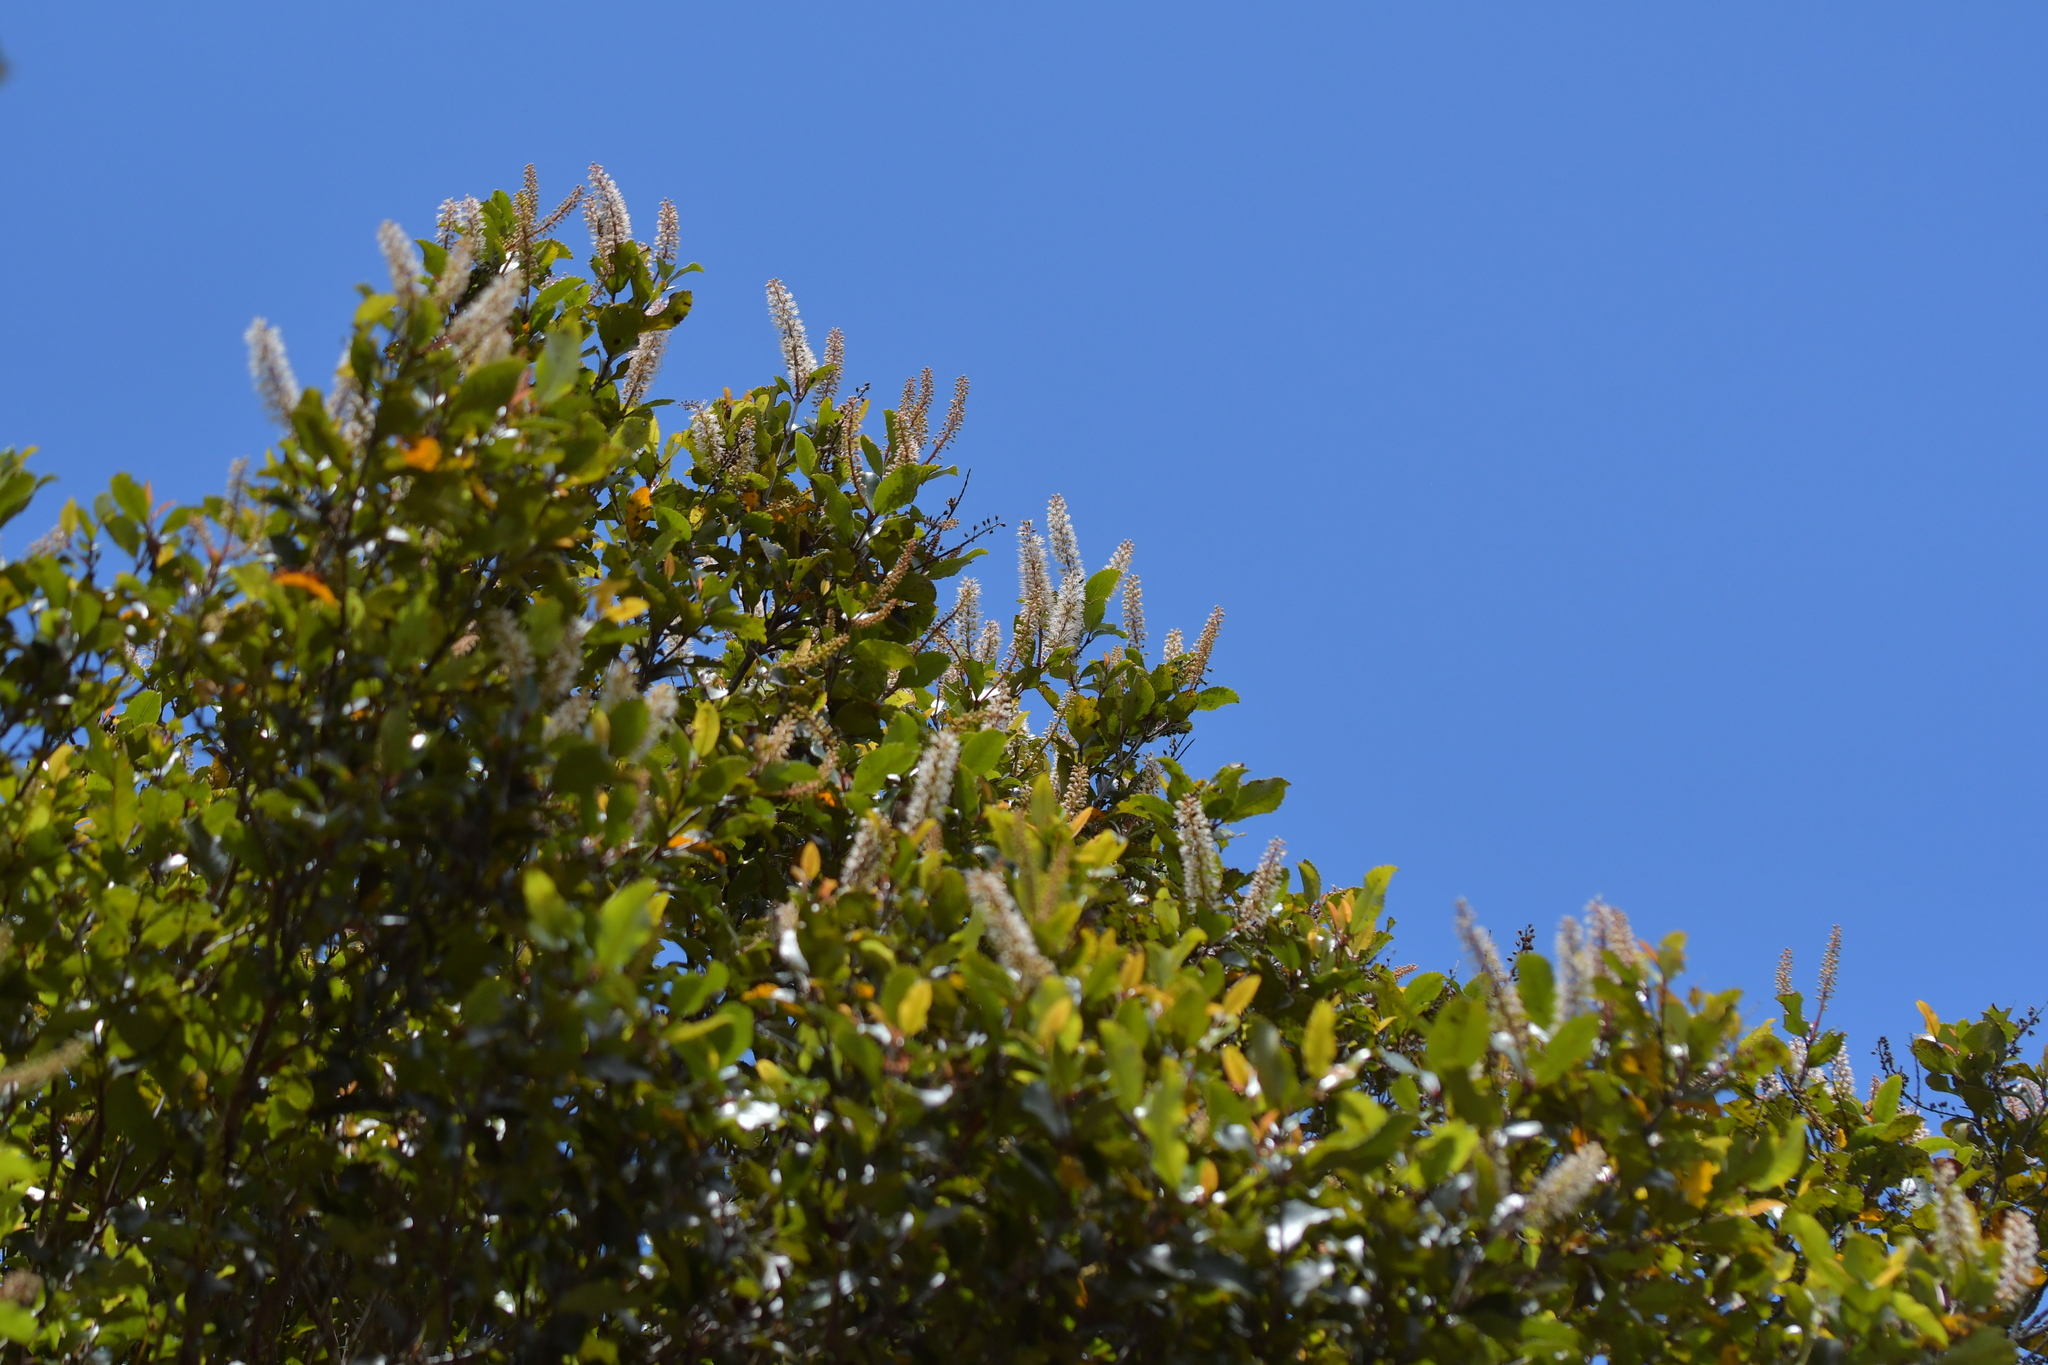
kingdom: Plantae
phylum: Tracheophyta
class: Magnoliopsida
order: Oxalidales
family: Cunoniaceae
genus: Pterophylla
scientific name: Pterophylla racemosa
